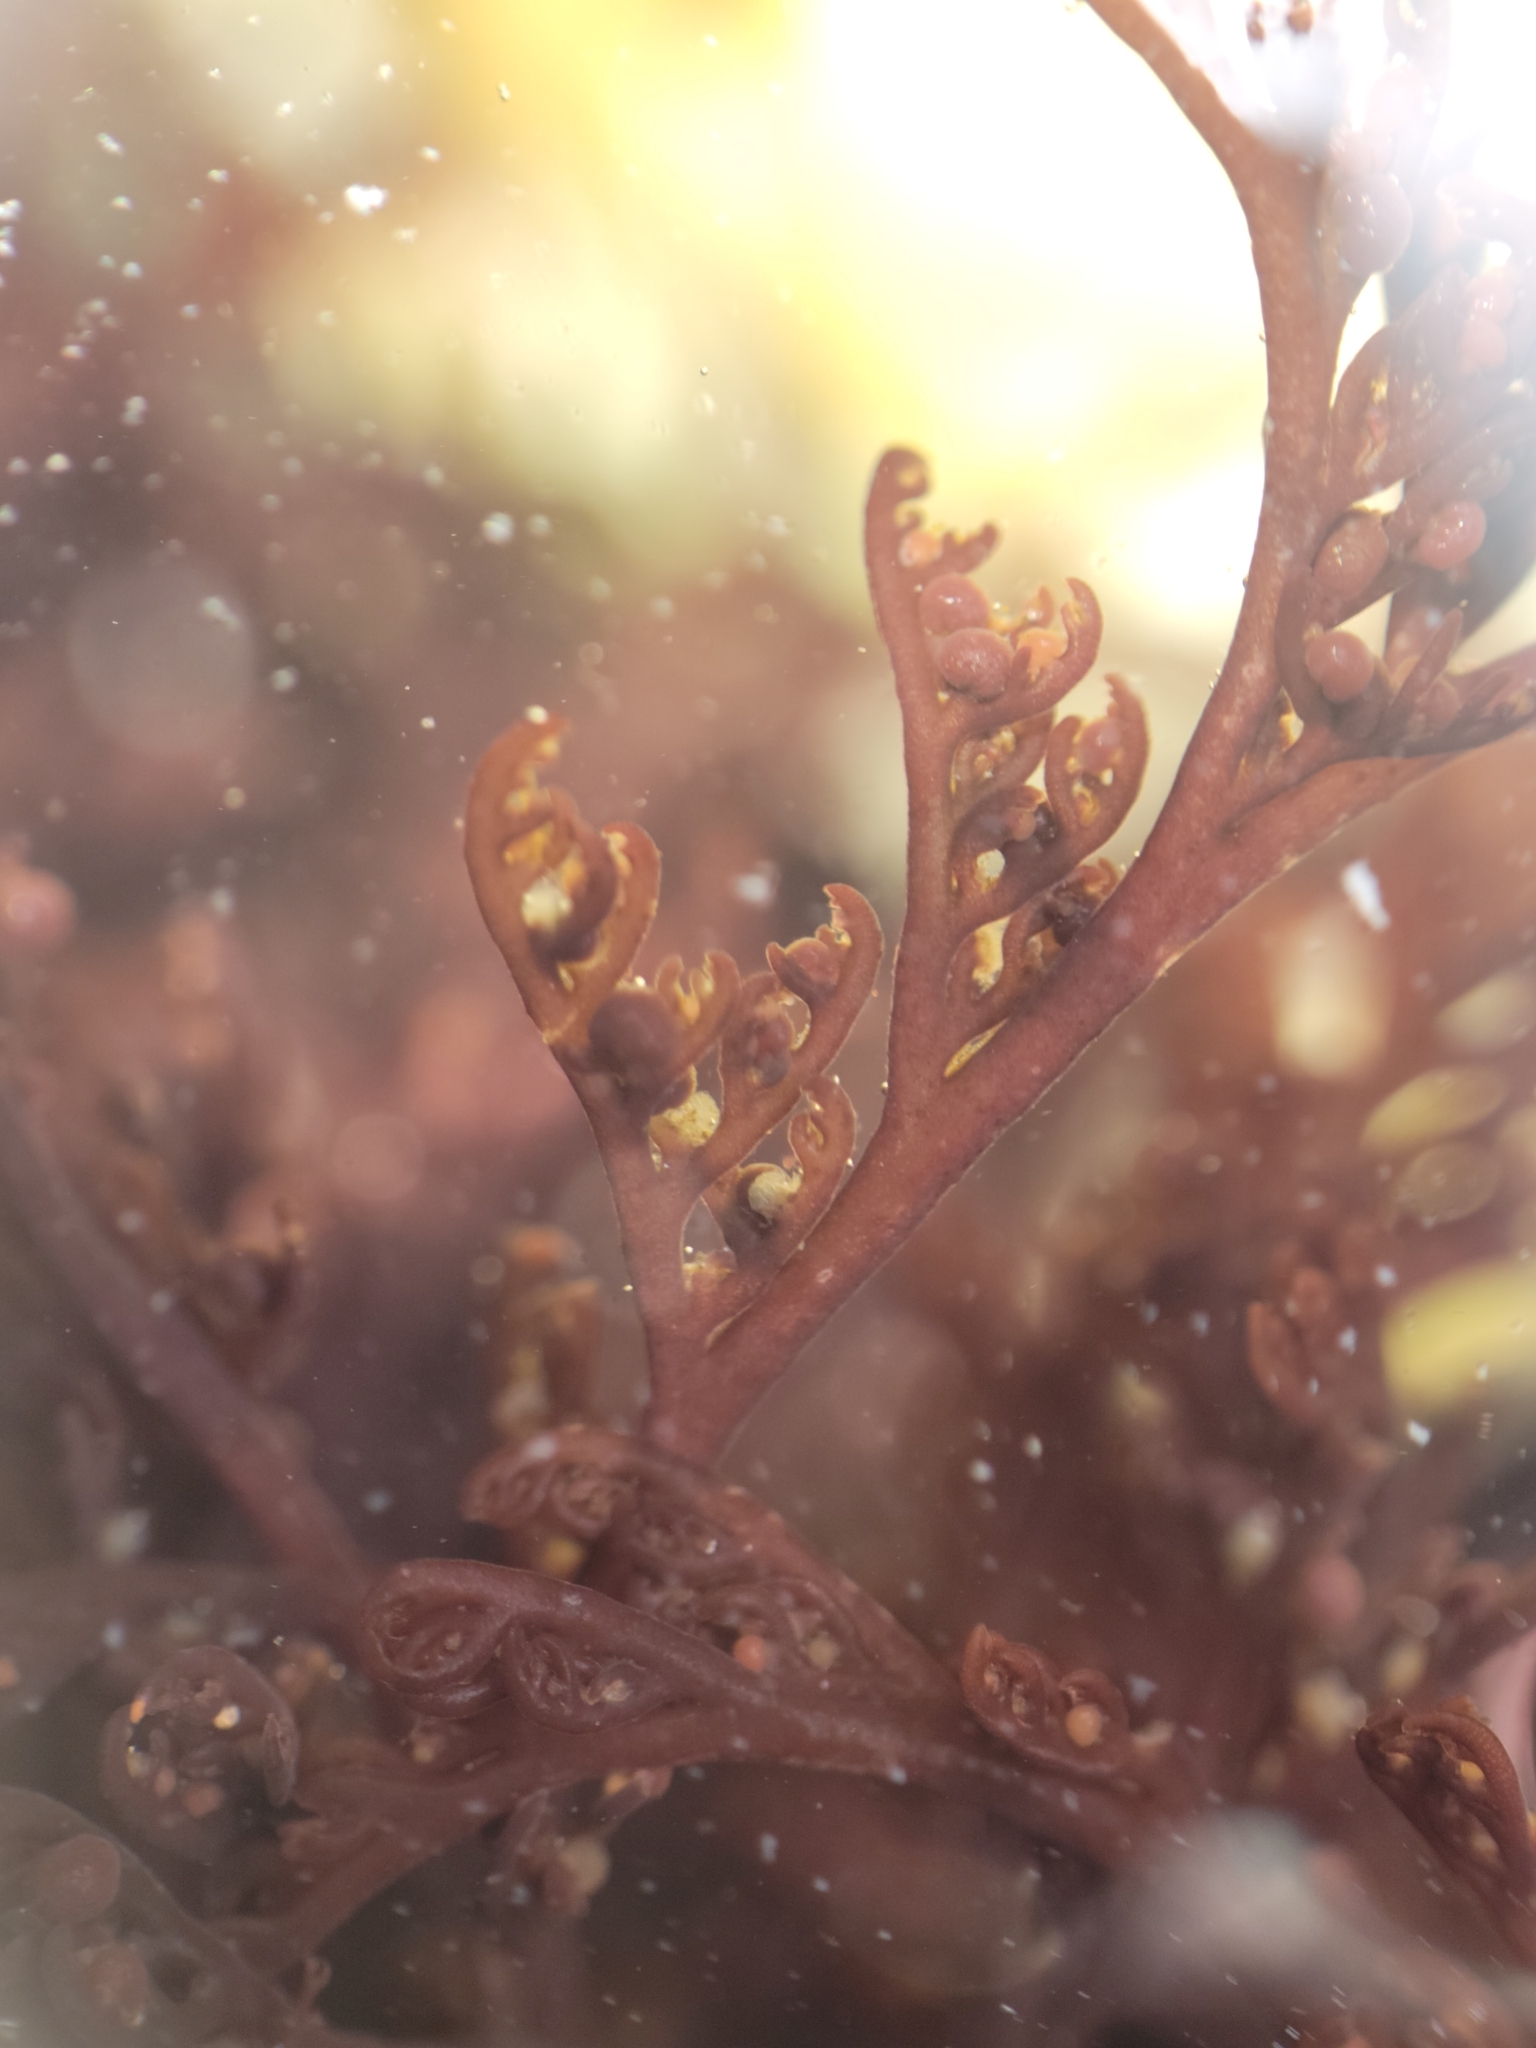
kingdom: Plantae
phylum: Rhodophyta
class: Florideophyceae
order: Ceramiales
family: Ceramiaceae
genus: Microcladia
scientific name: Microcladia borealis
